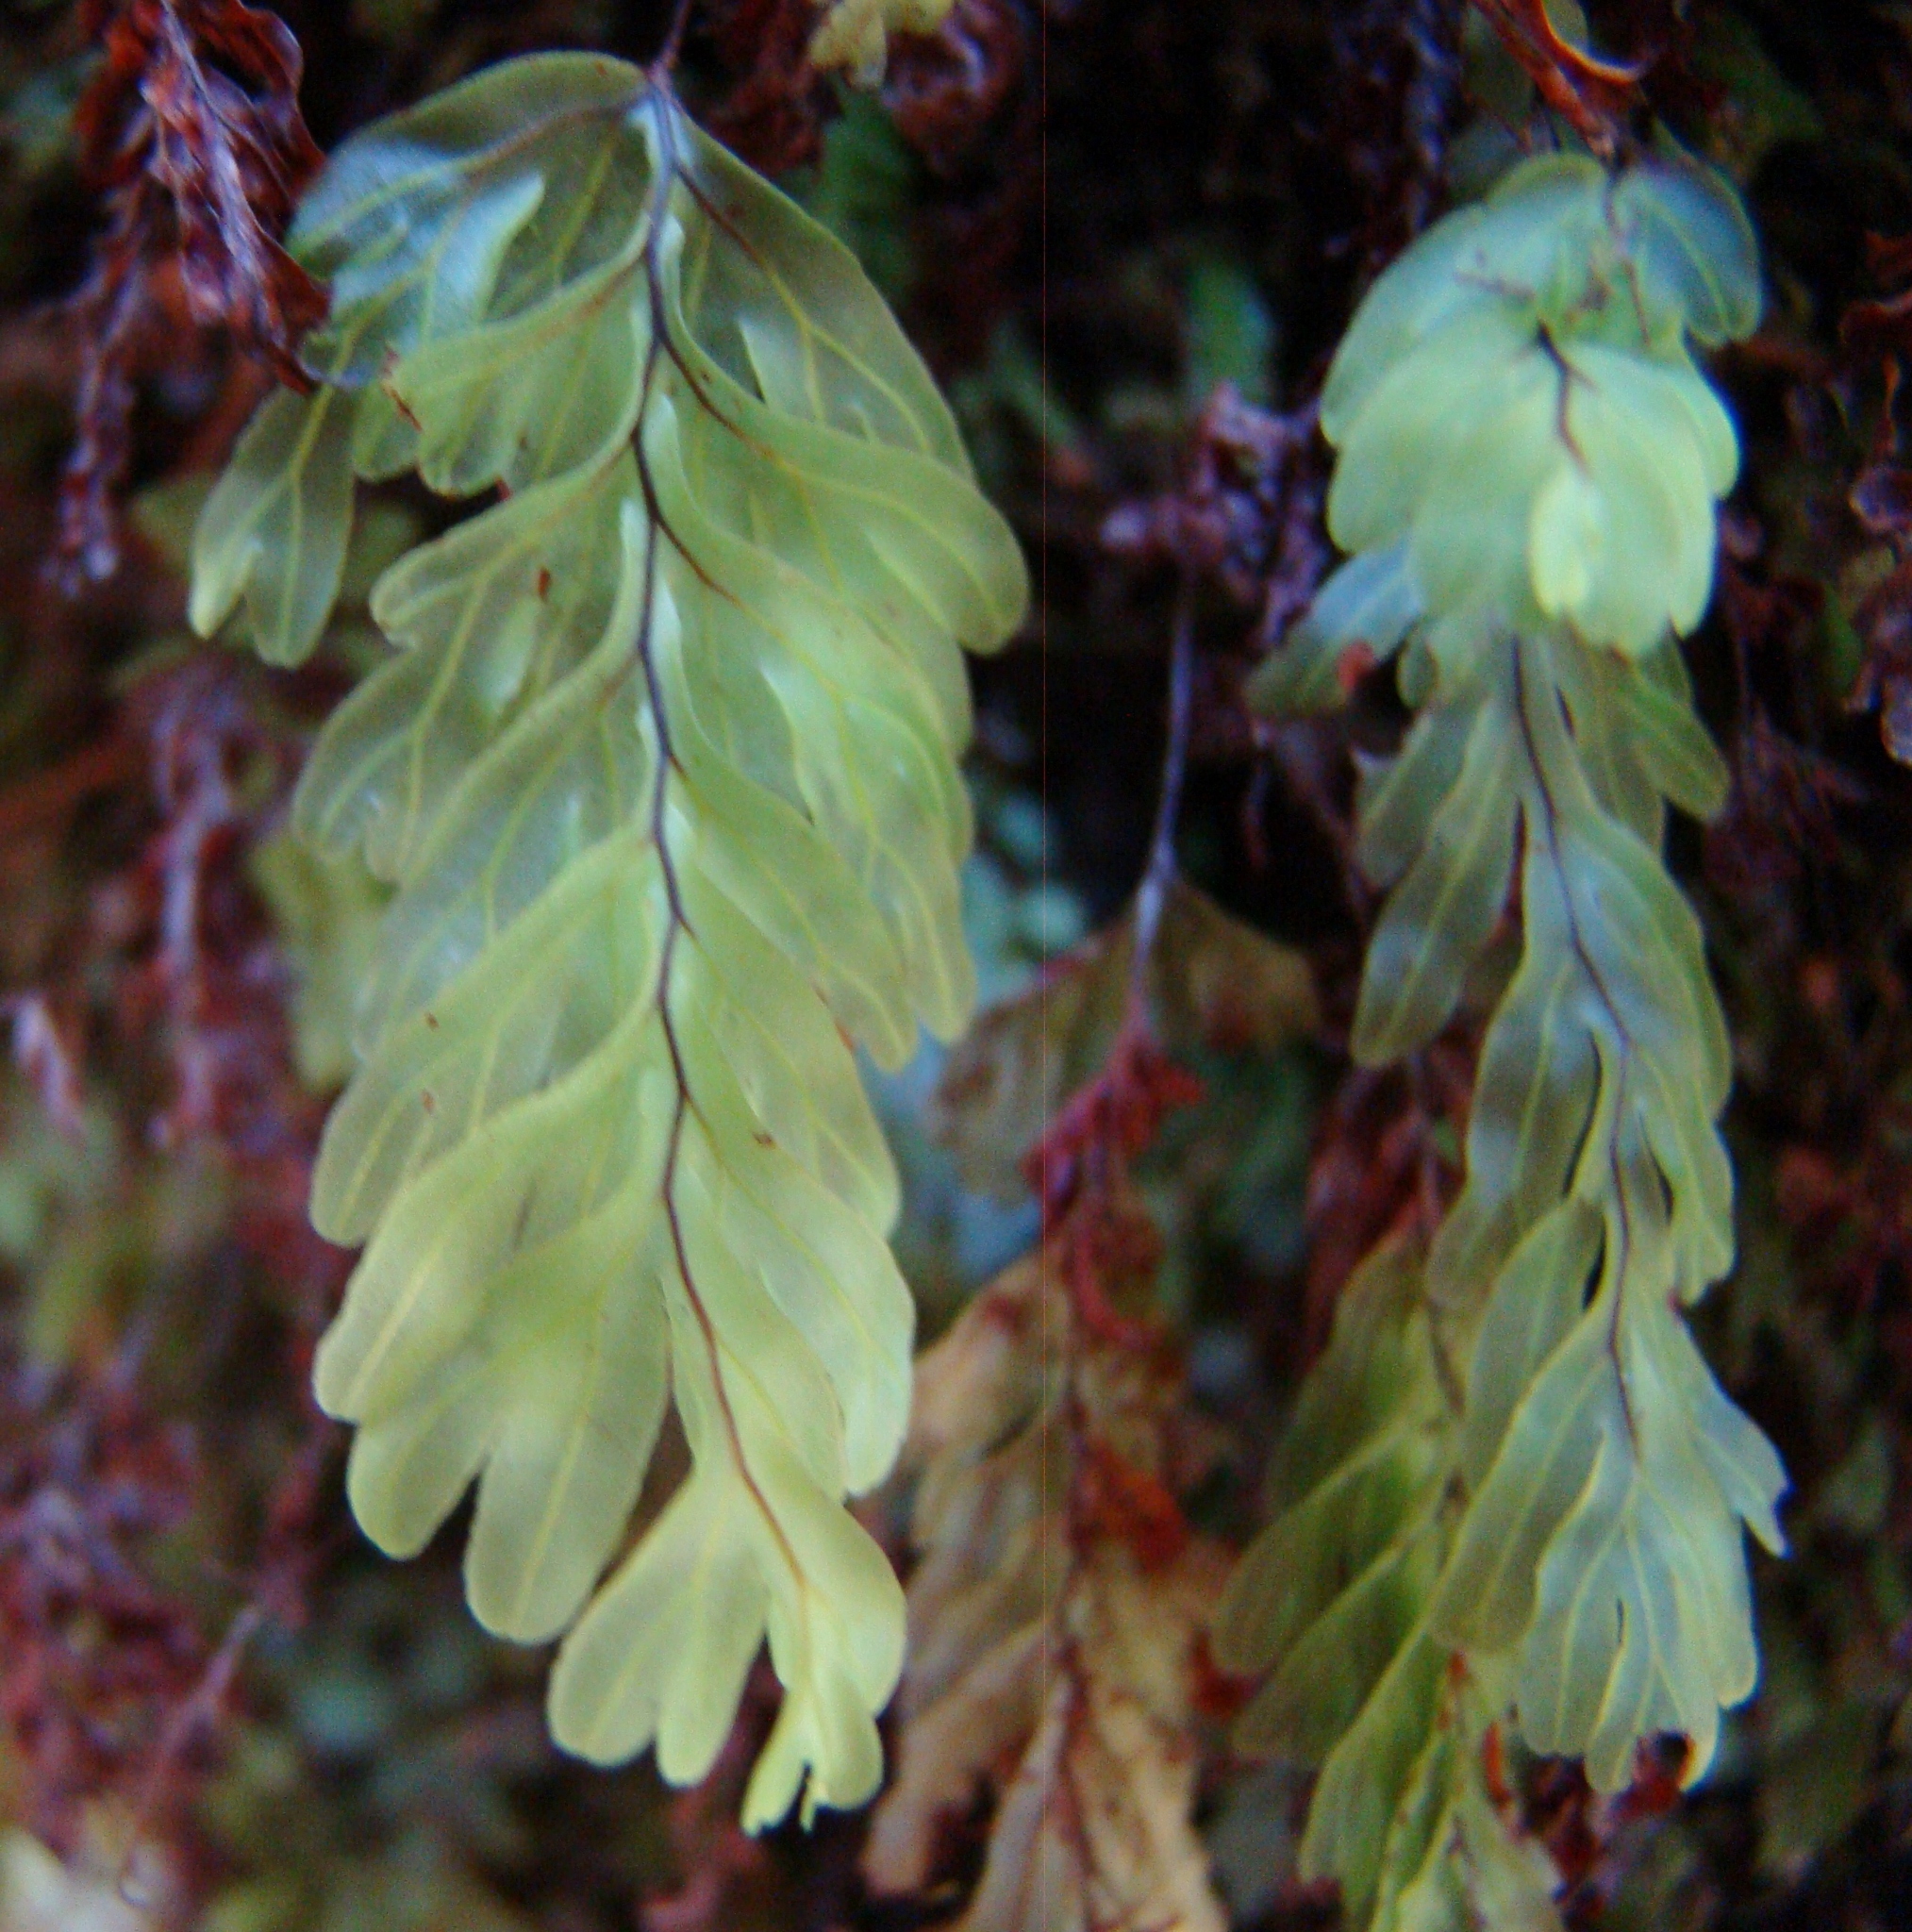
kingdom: Plantae
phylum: Tracheophyta
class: Polypodiopsida
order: Hymenophyllales
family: Hymenophyllaceae
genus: Hymenophyllum
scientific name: Hymenophyllum rarum
